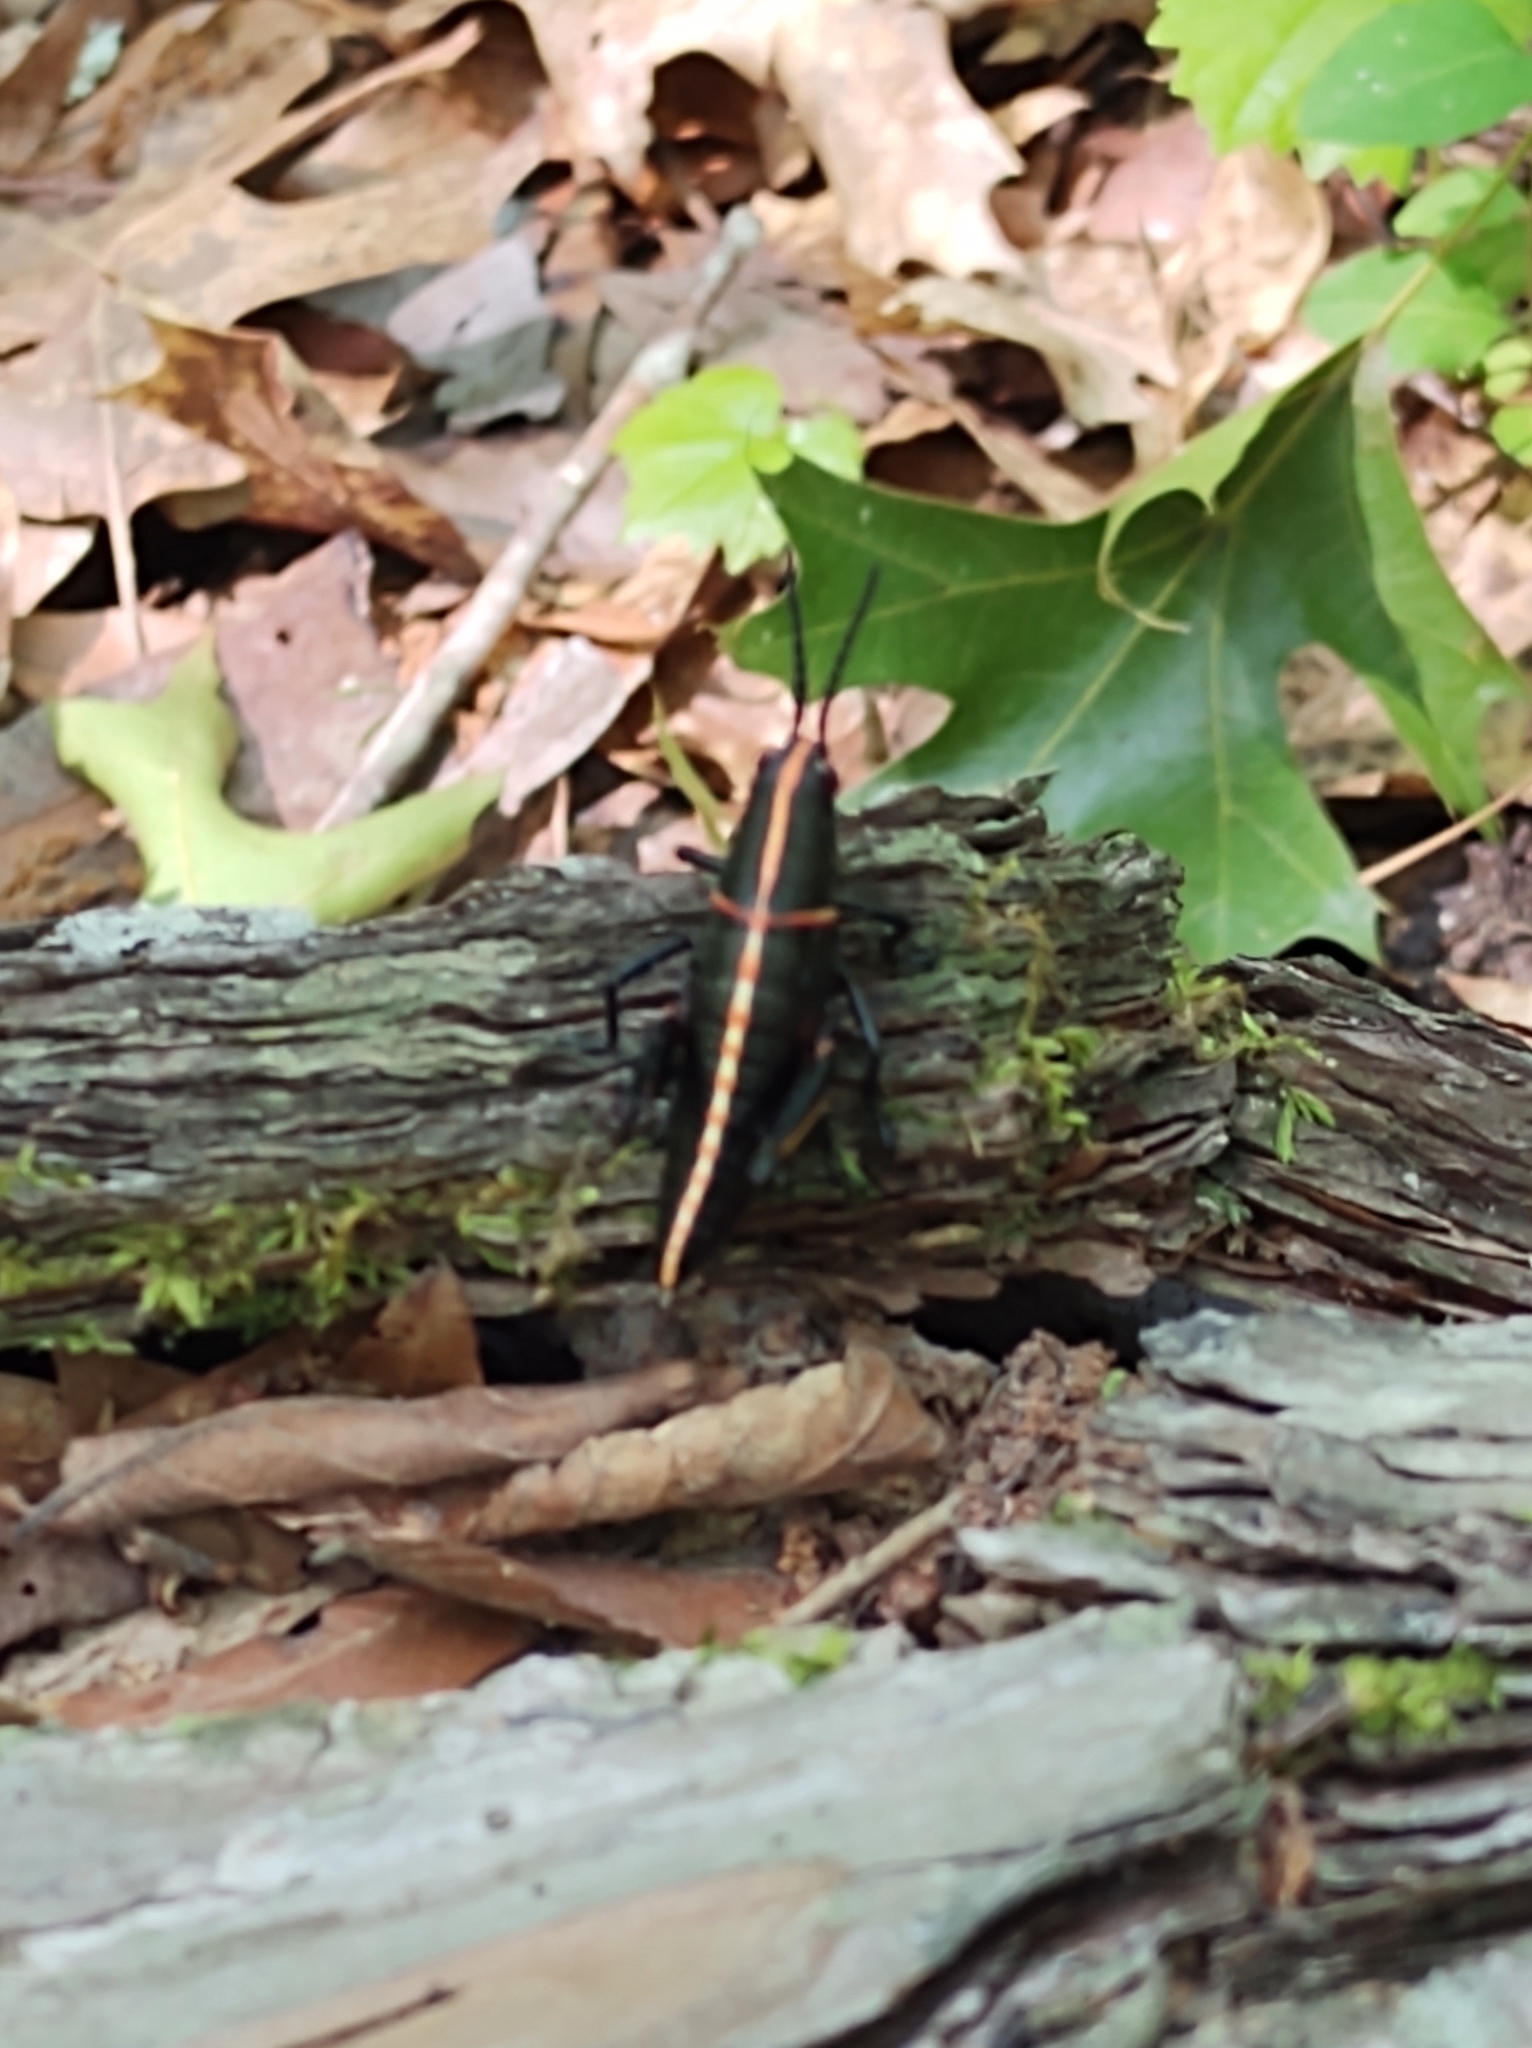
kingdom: Animalia
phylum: Arthropoda
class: Insecta
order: Orthoptera
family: Romaleidae
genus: Romalea
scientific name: Romalea microptera
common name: Eastern lubber grasshopper
